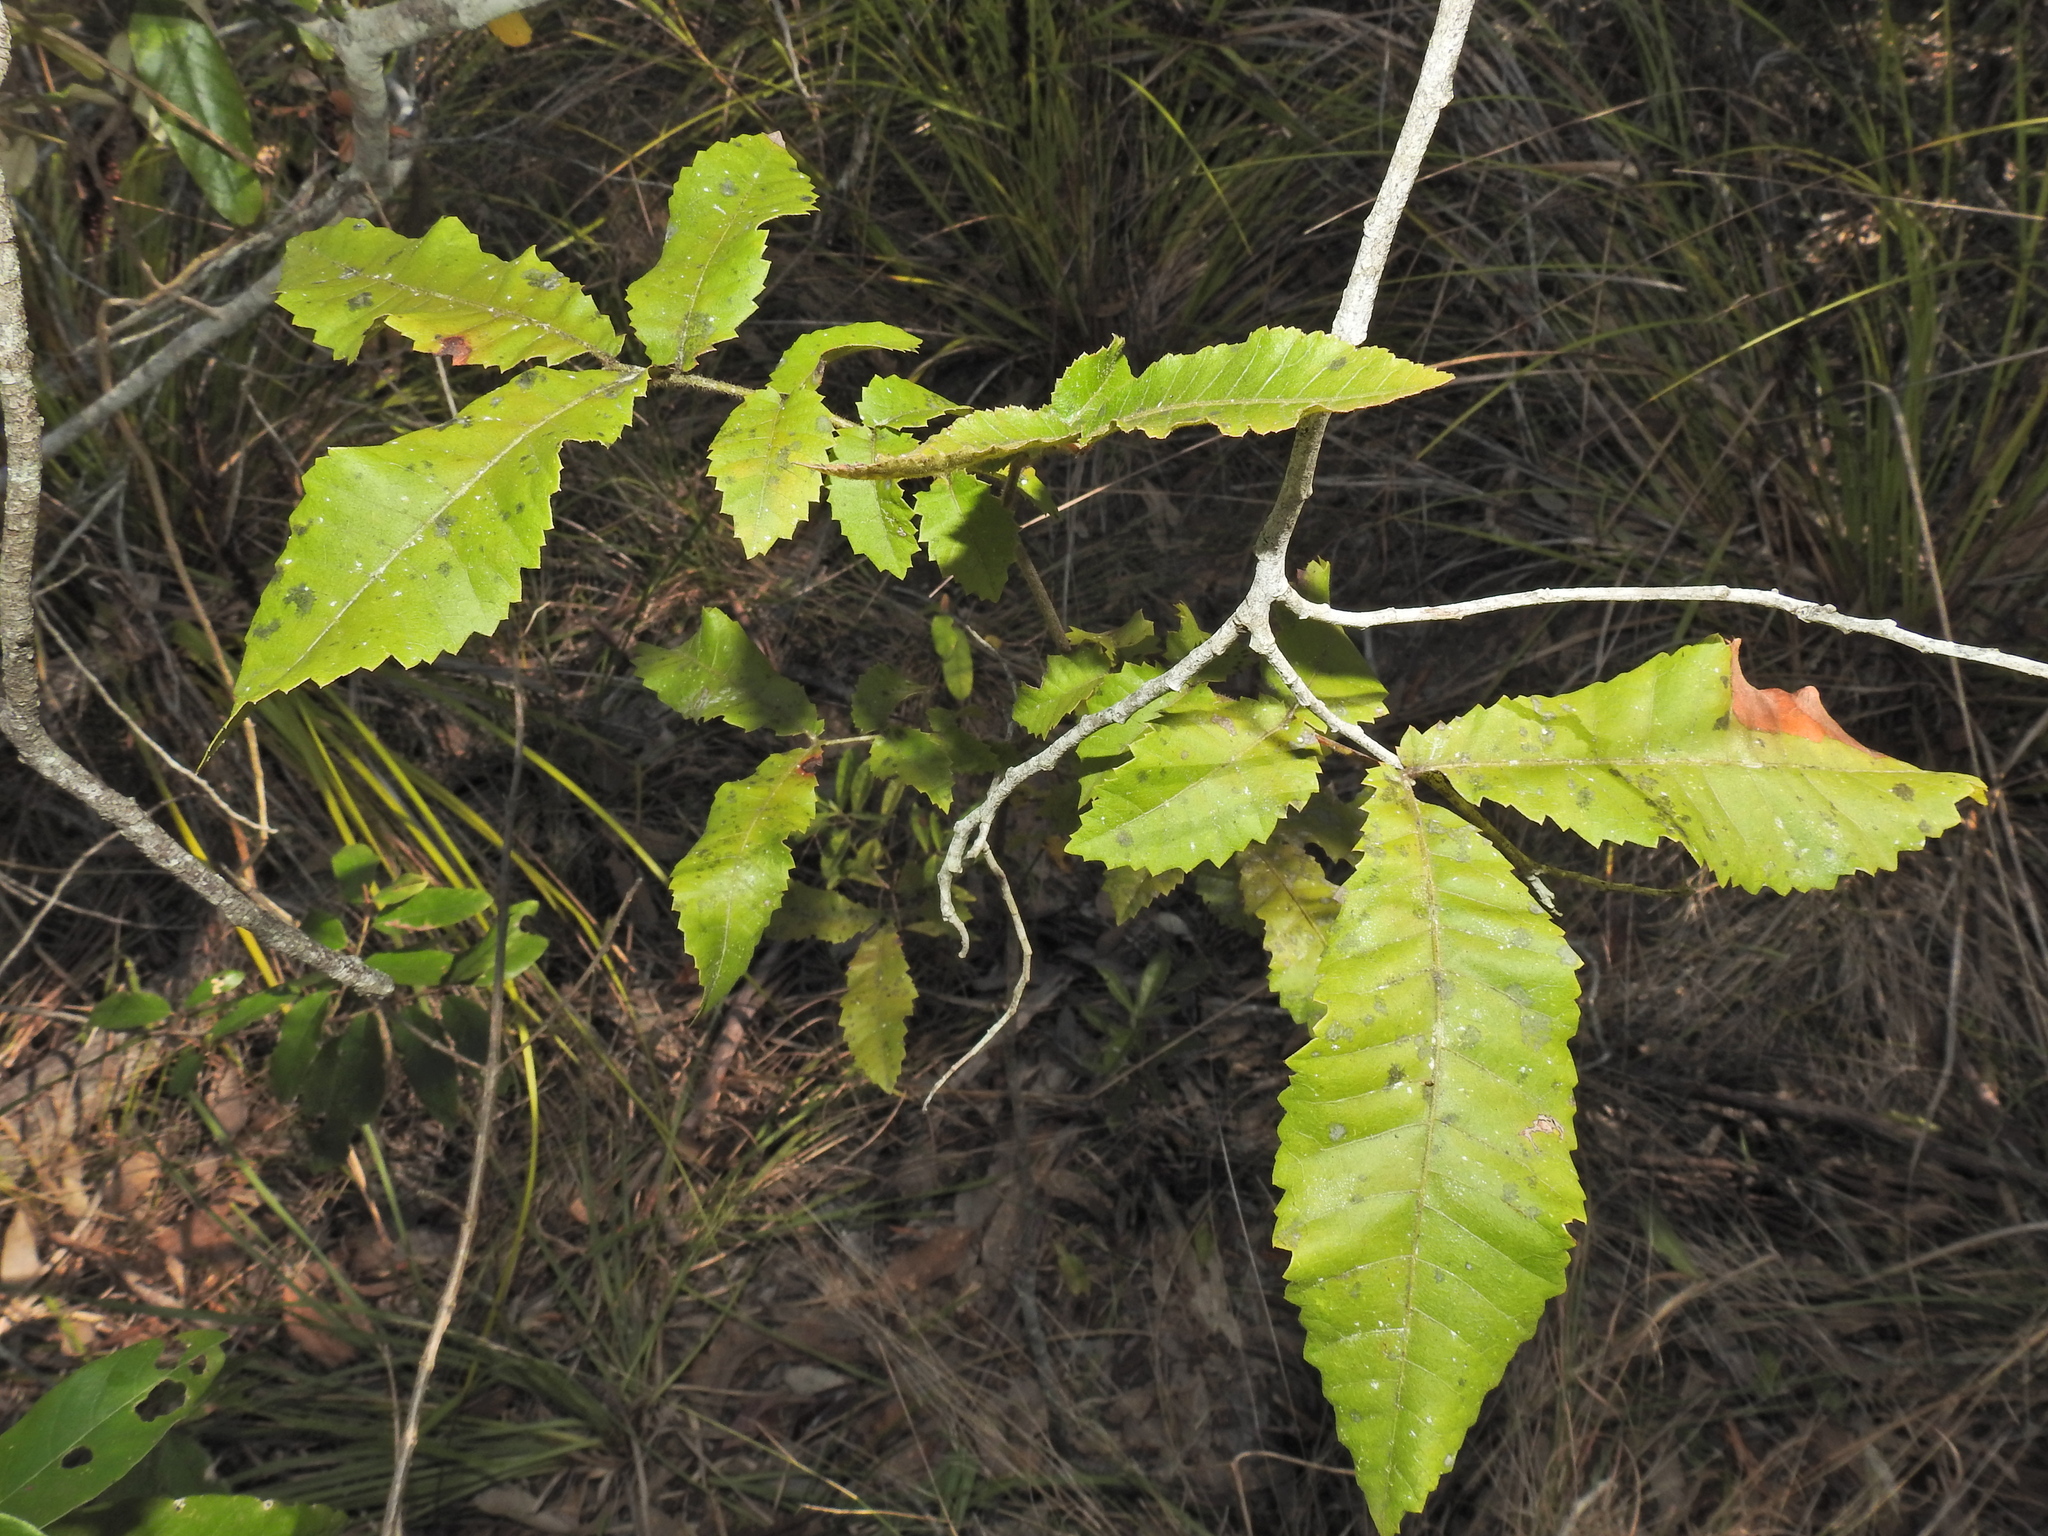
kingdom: Plantae
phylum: Tracheophyta
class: Magnoliopsida
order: Sapindales
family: Sapindaceae
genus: Alectryon
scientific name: Alectryon tomentosus
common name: Bed-jacket
